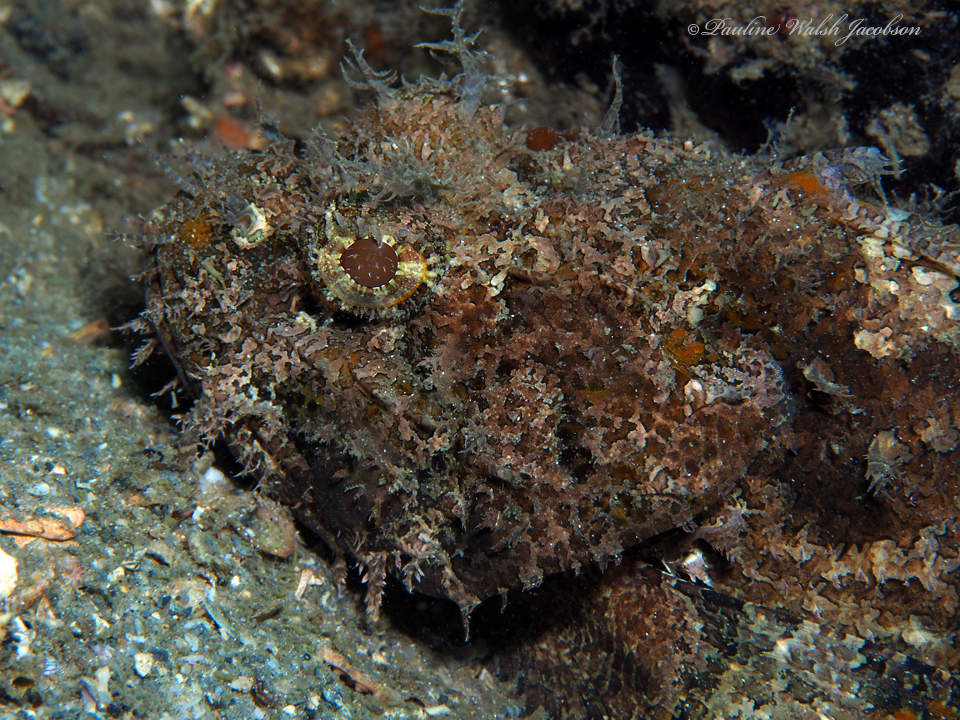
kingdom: Animalia
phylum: Chordata
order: Scorpaeniformes
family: Scorpaenidae
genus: Scorpaena
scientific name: Scorpaena plumieri
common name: Spotted scorpionfish
